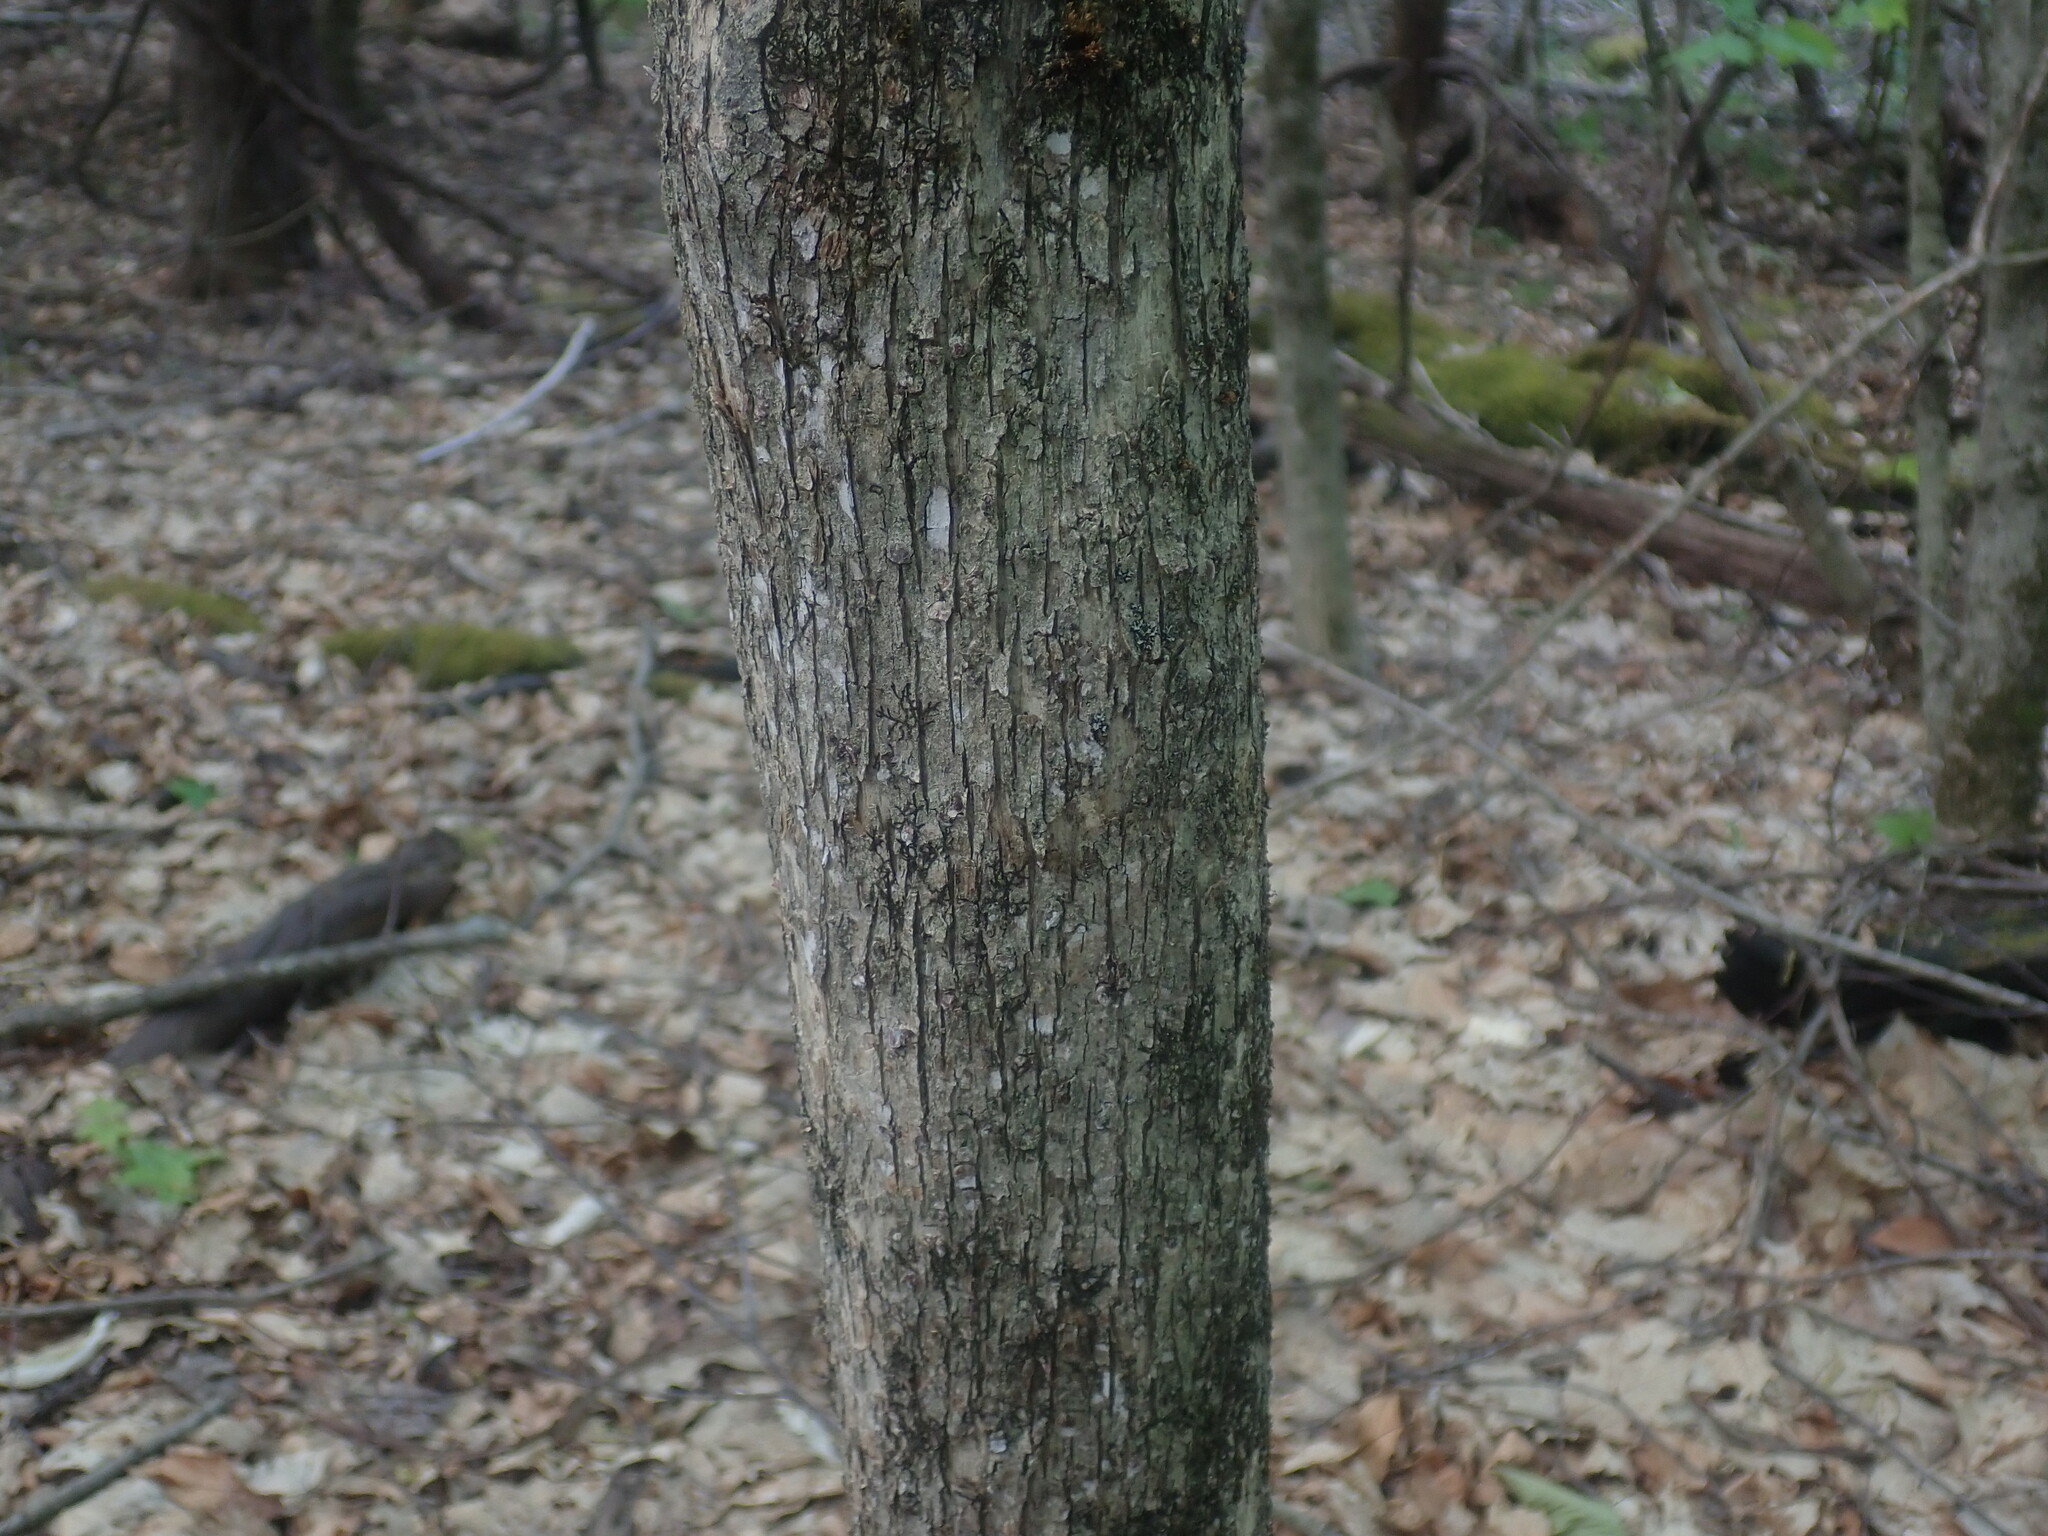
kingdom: Plantae
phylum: Tracheophyta
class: Magnoliopsida
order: Fagales
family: Betulaceae
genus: Ostrya
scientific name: Ostrya virginiana
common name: Ironwood
